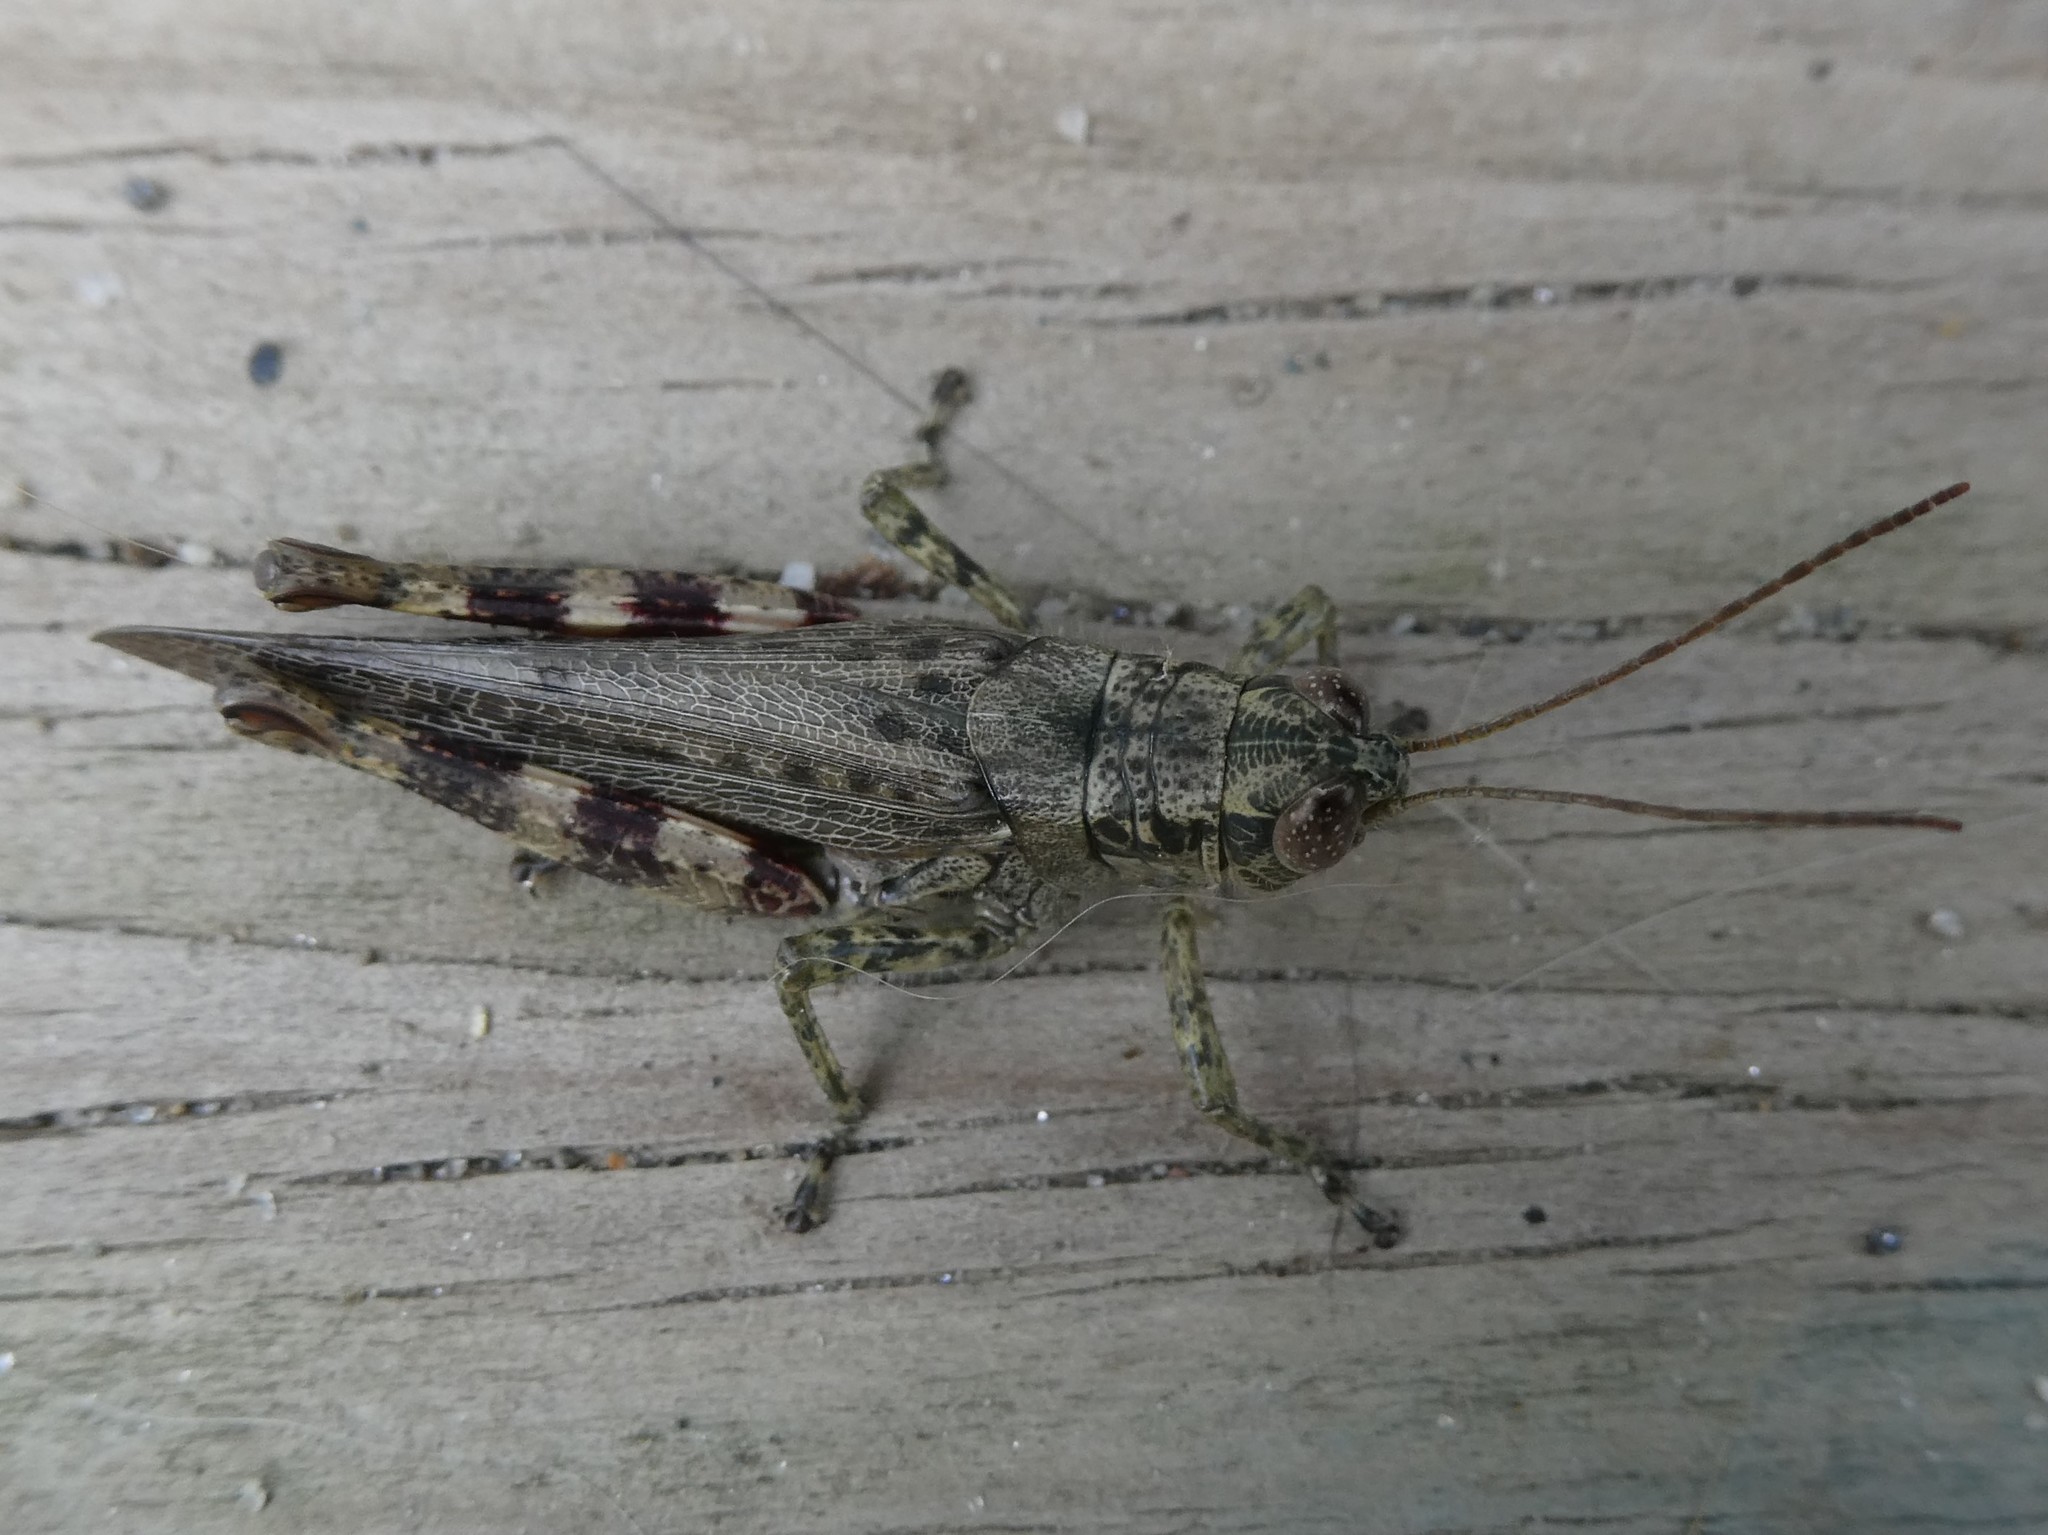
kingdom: Animalia
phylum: Arthropoda
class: Insecta
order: Orthoptera
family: Acrididae
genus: Melanoplus
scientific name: Melanoplus punctulatus
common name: Pine-tree spur-throat grasshopper
